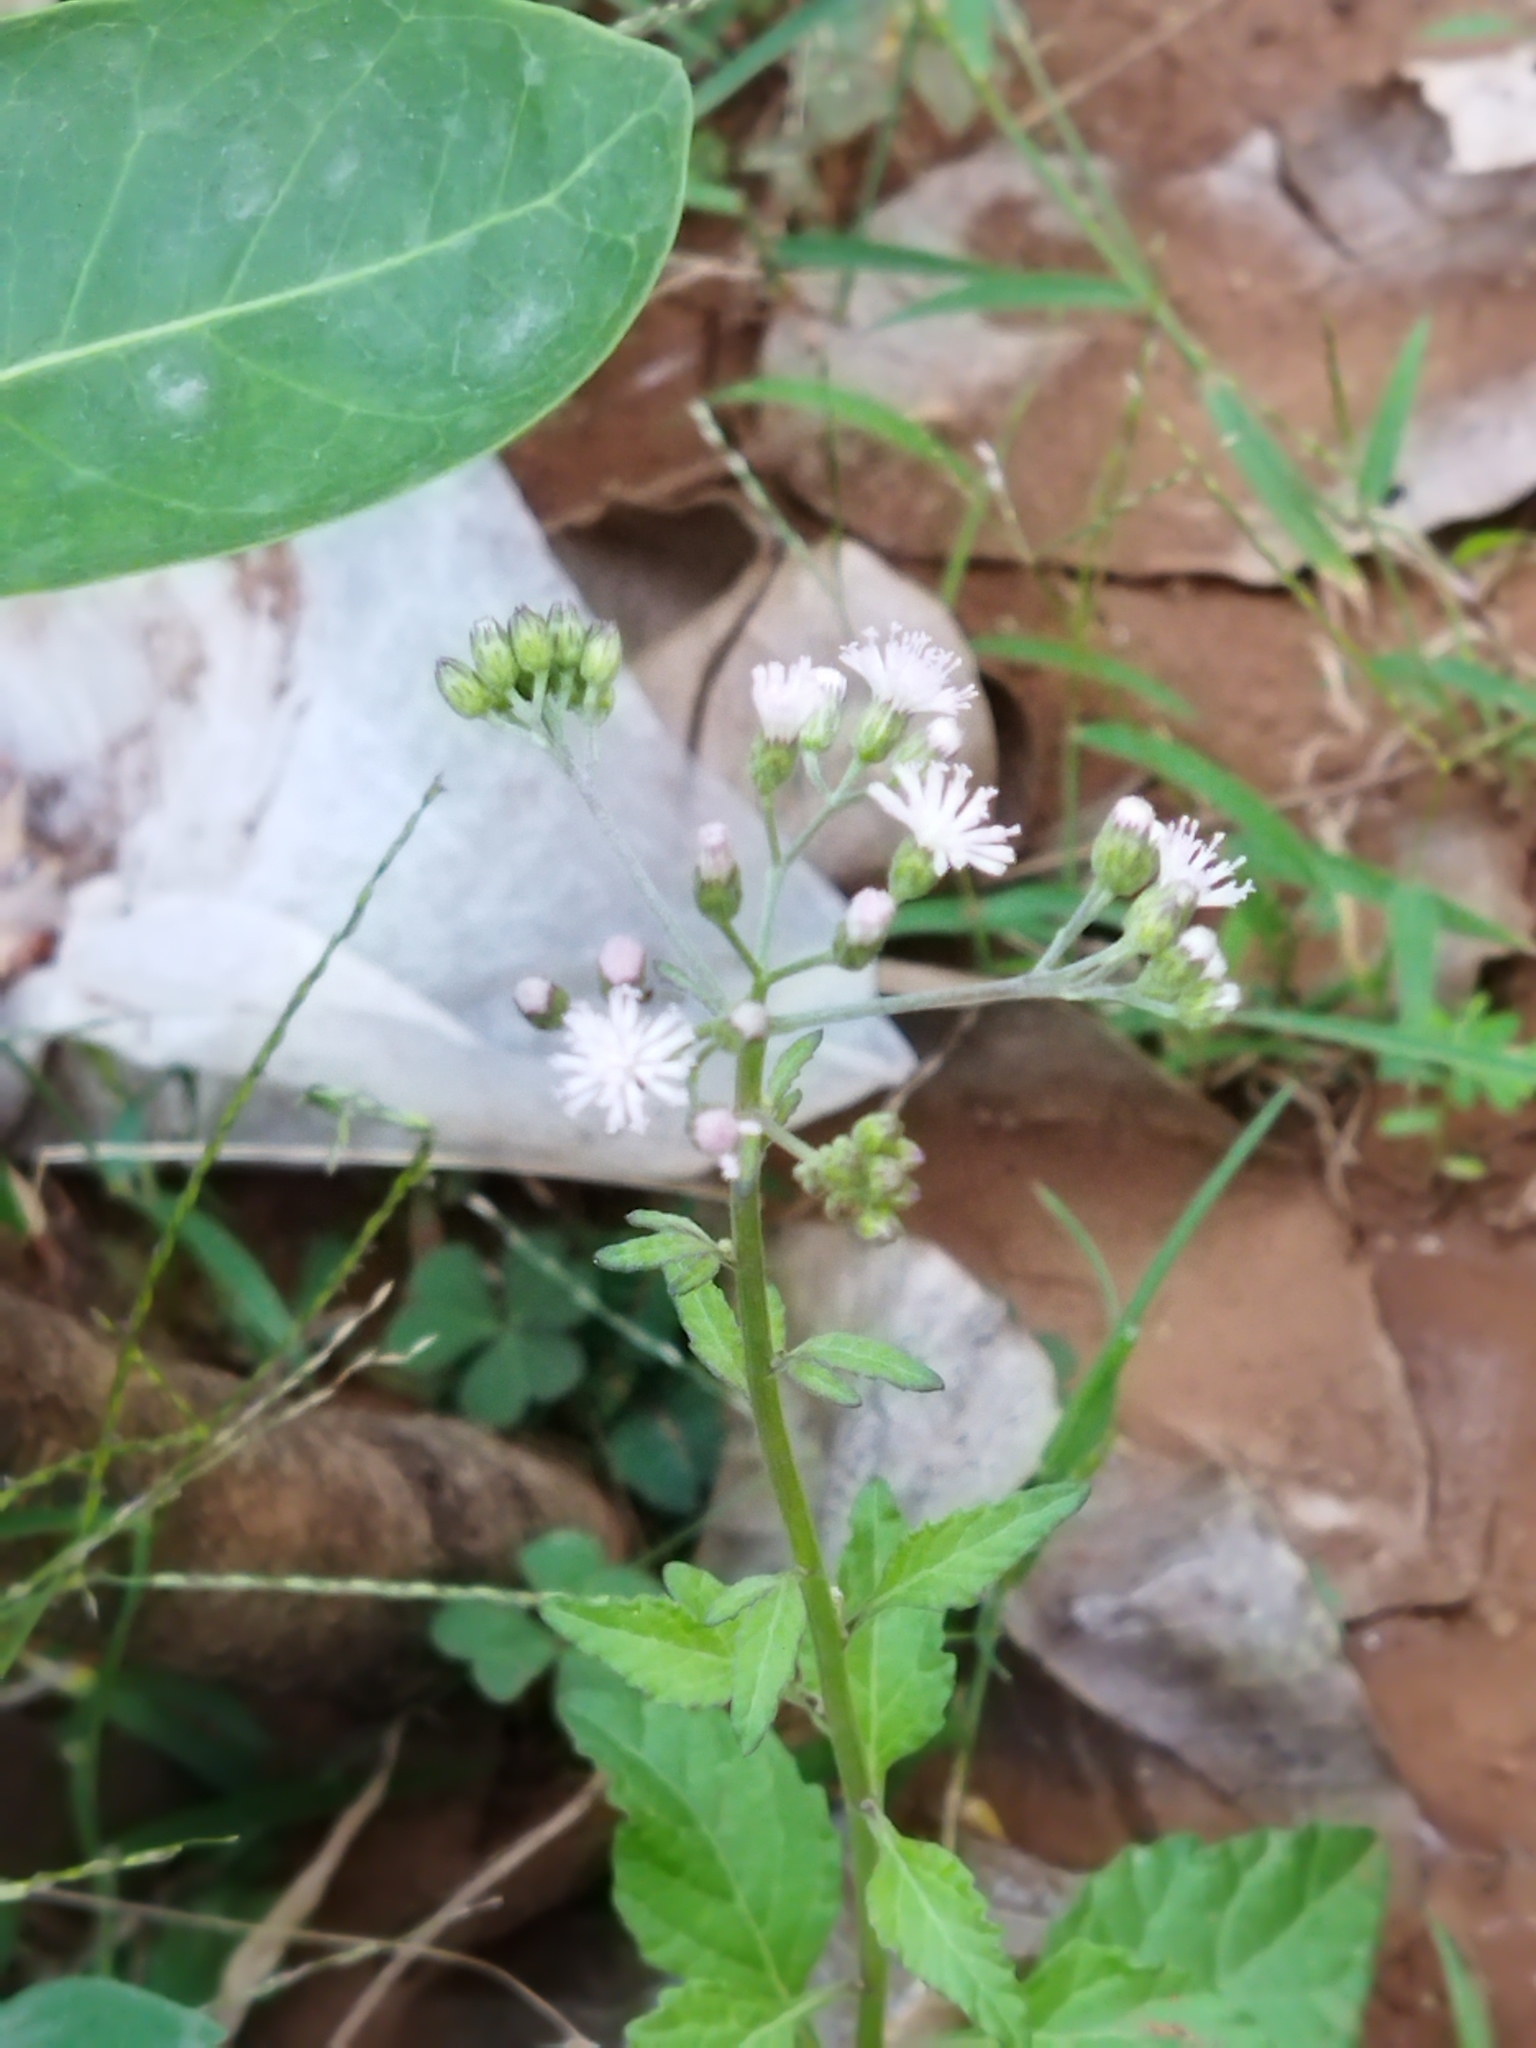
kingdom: Plantae
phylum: Tracheophyta
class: Magnoliopsida
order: Asterales
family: Asteraceae
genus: Cyanthillium
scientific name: Cyanthillium cinereum
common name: Little ironweed
